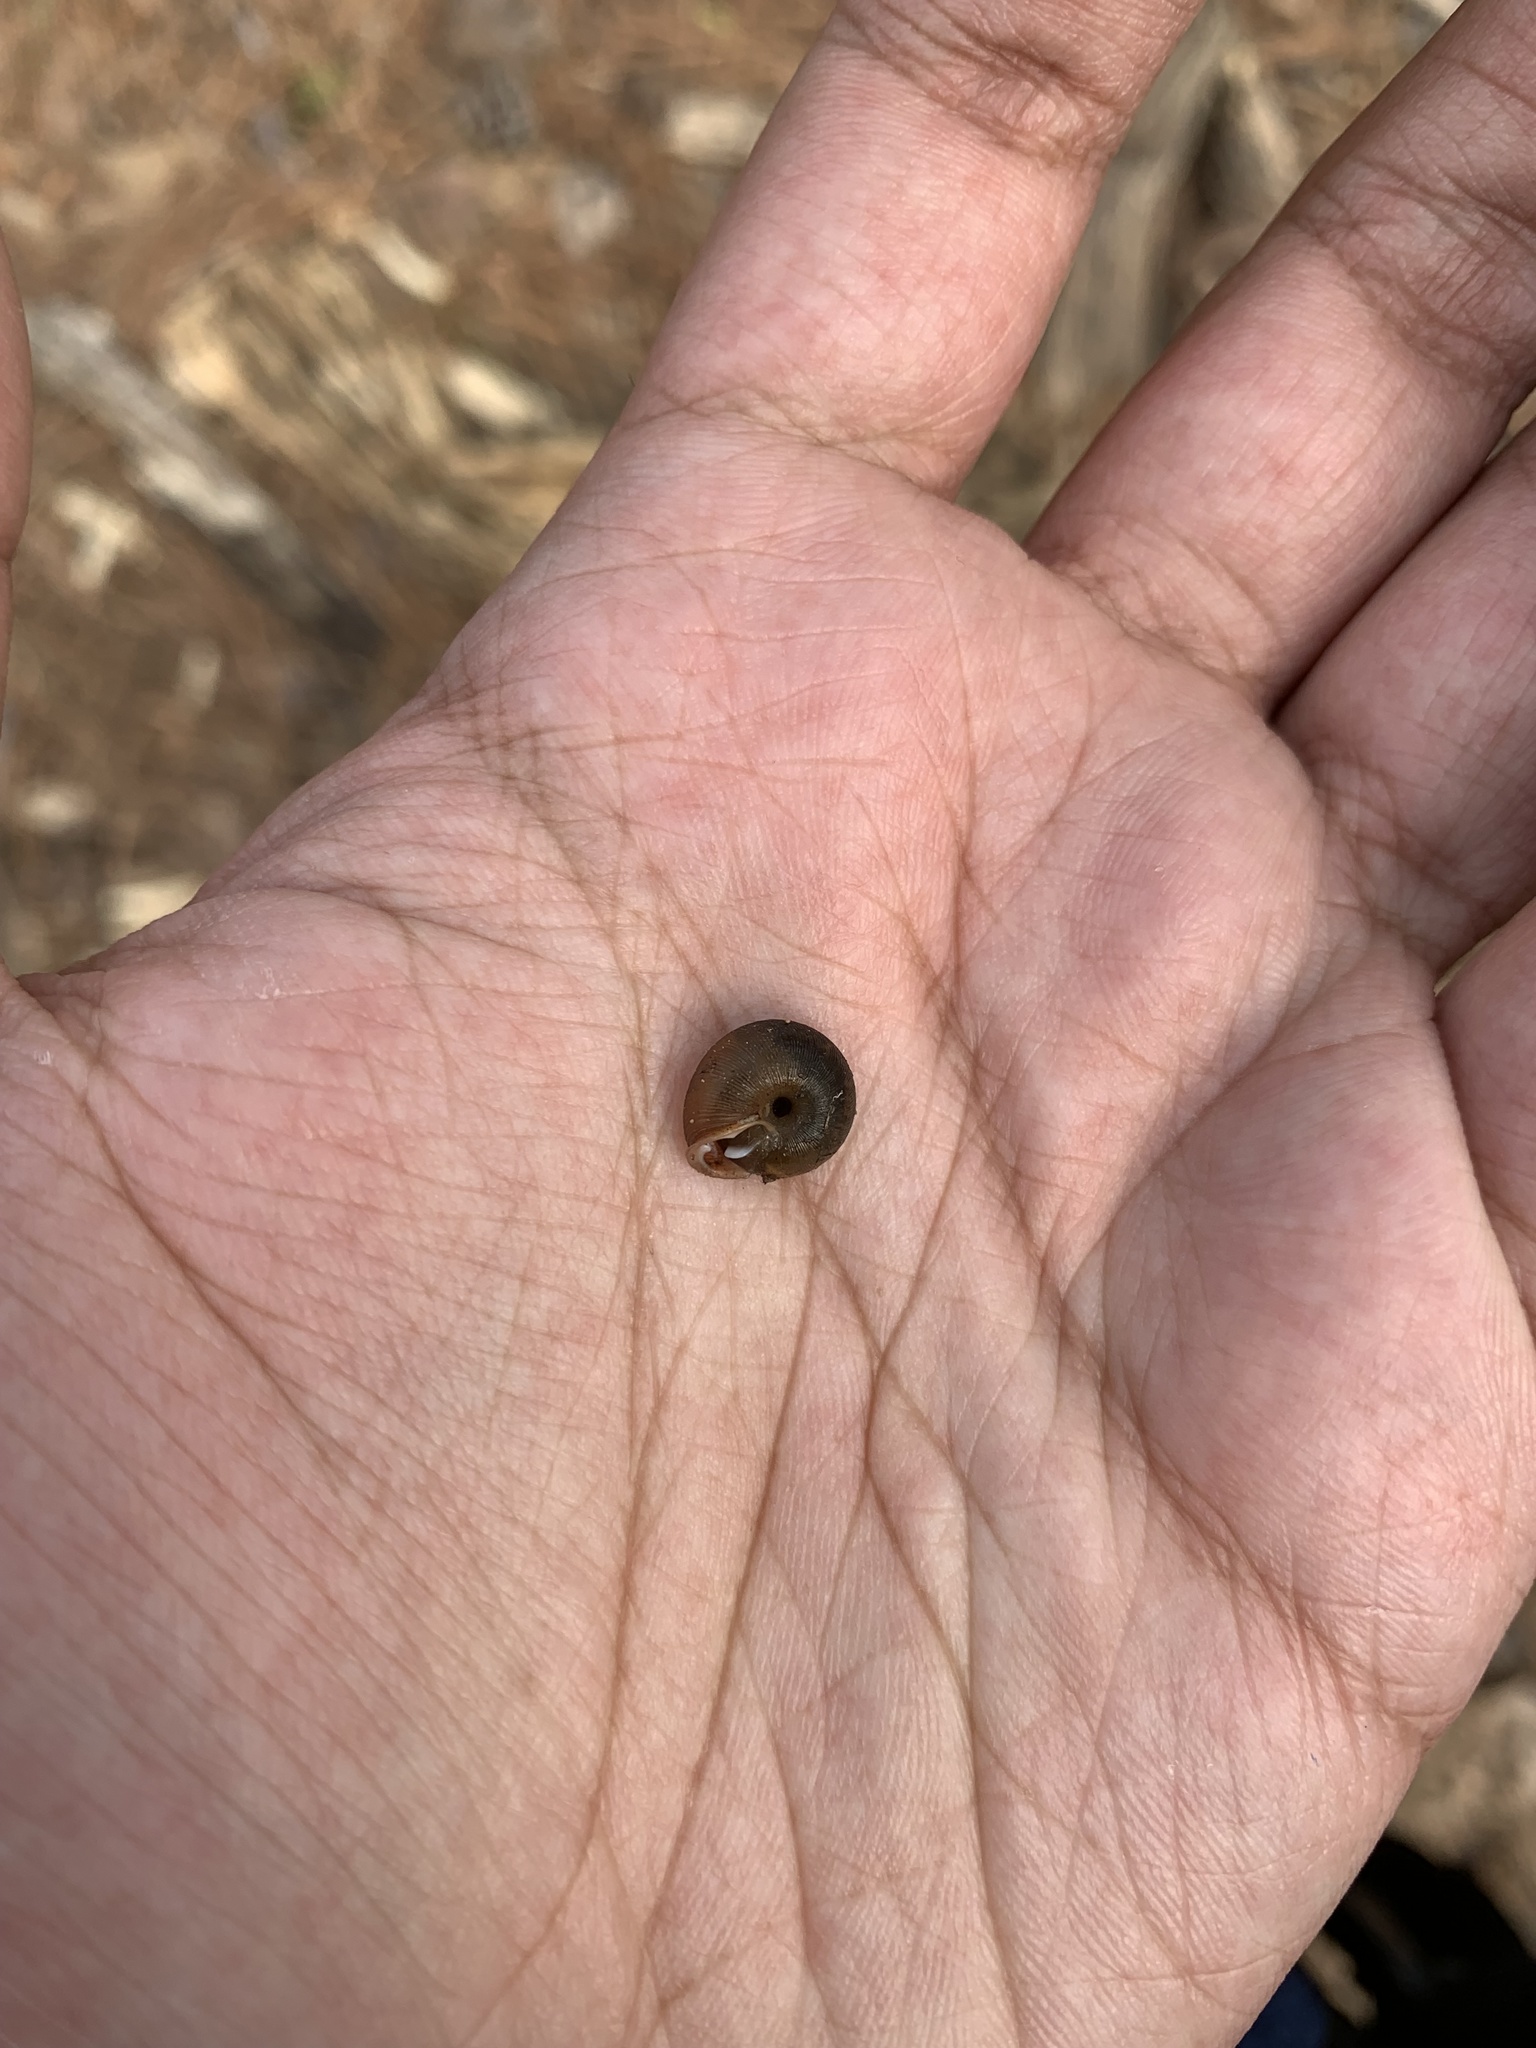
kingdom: Animalia
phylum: Mollusca
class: Gastropoda
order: Stylommatophora
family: Polygyridae
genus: Triodopsis
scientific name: Triodopsis hopetonensis
